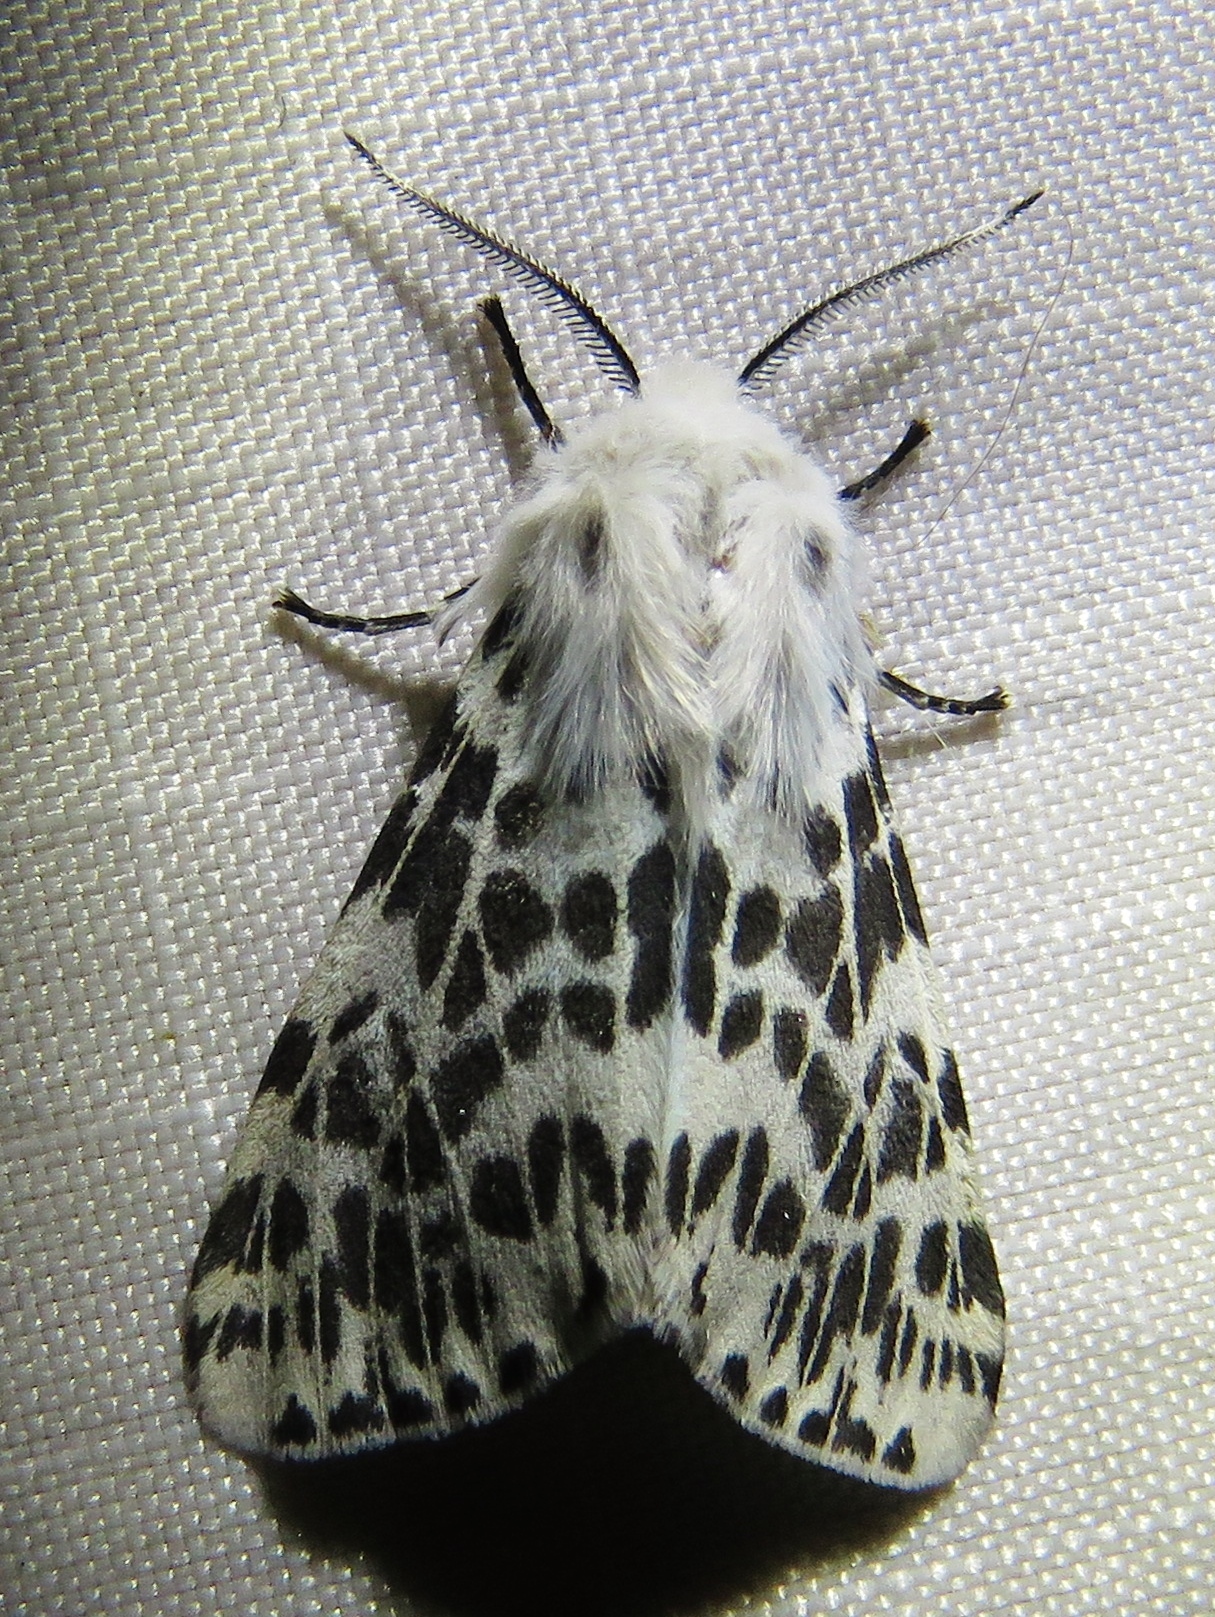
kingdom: Animalia
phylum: Arthropoda
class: Insecta
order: Lepidoptera
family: Erebidae
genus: Hyphantria
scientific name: Hyphantria cunea
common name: American white moth
